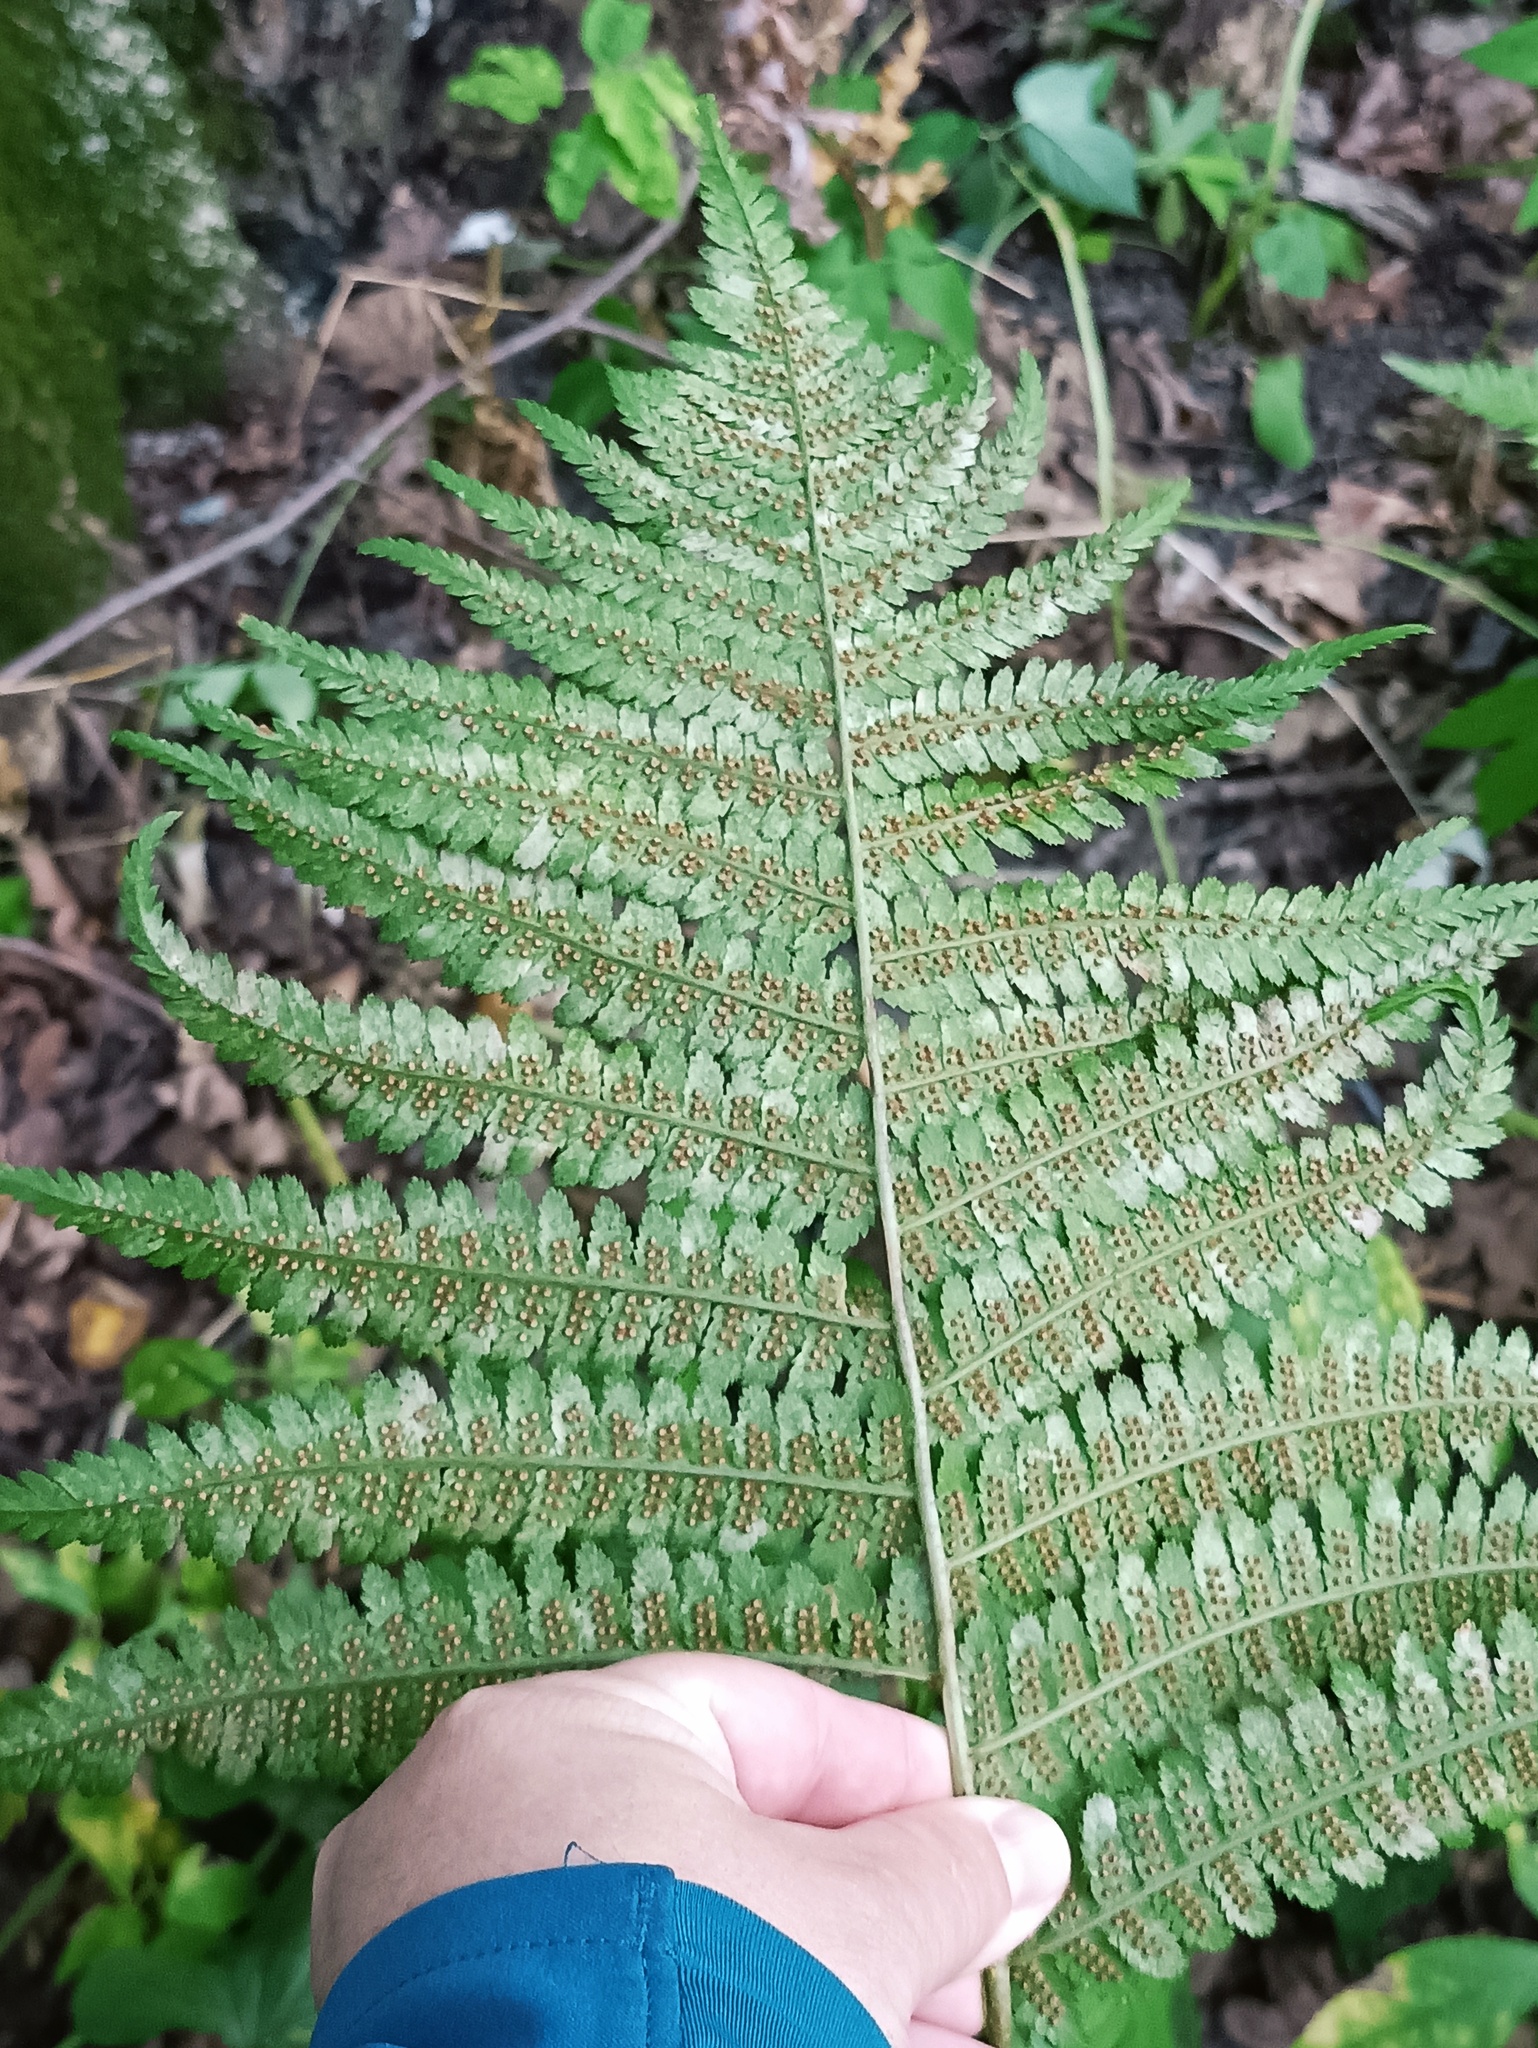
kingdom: Plantae
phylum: Tracheophyta
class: Polypodiopsida
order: Polypodiales
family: Dryopteridaceae
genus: Dryopteris
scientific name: Dryopteris filix-mas
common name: Male fern
